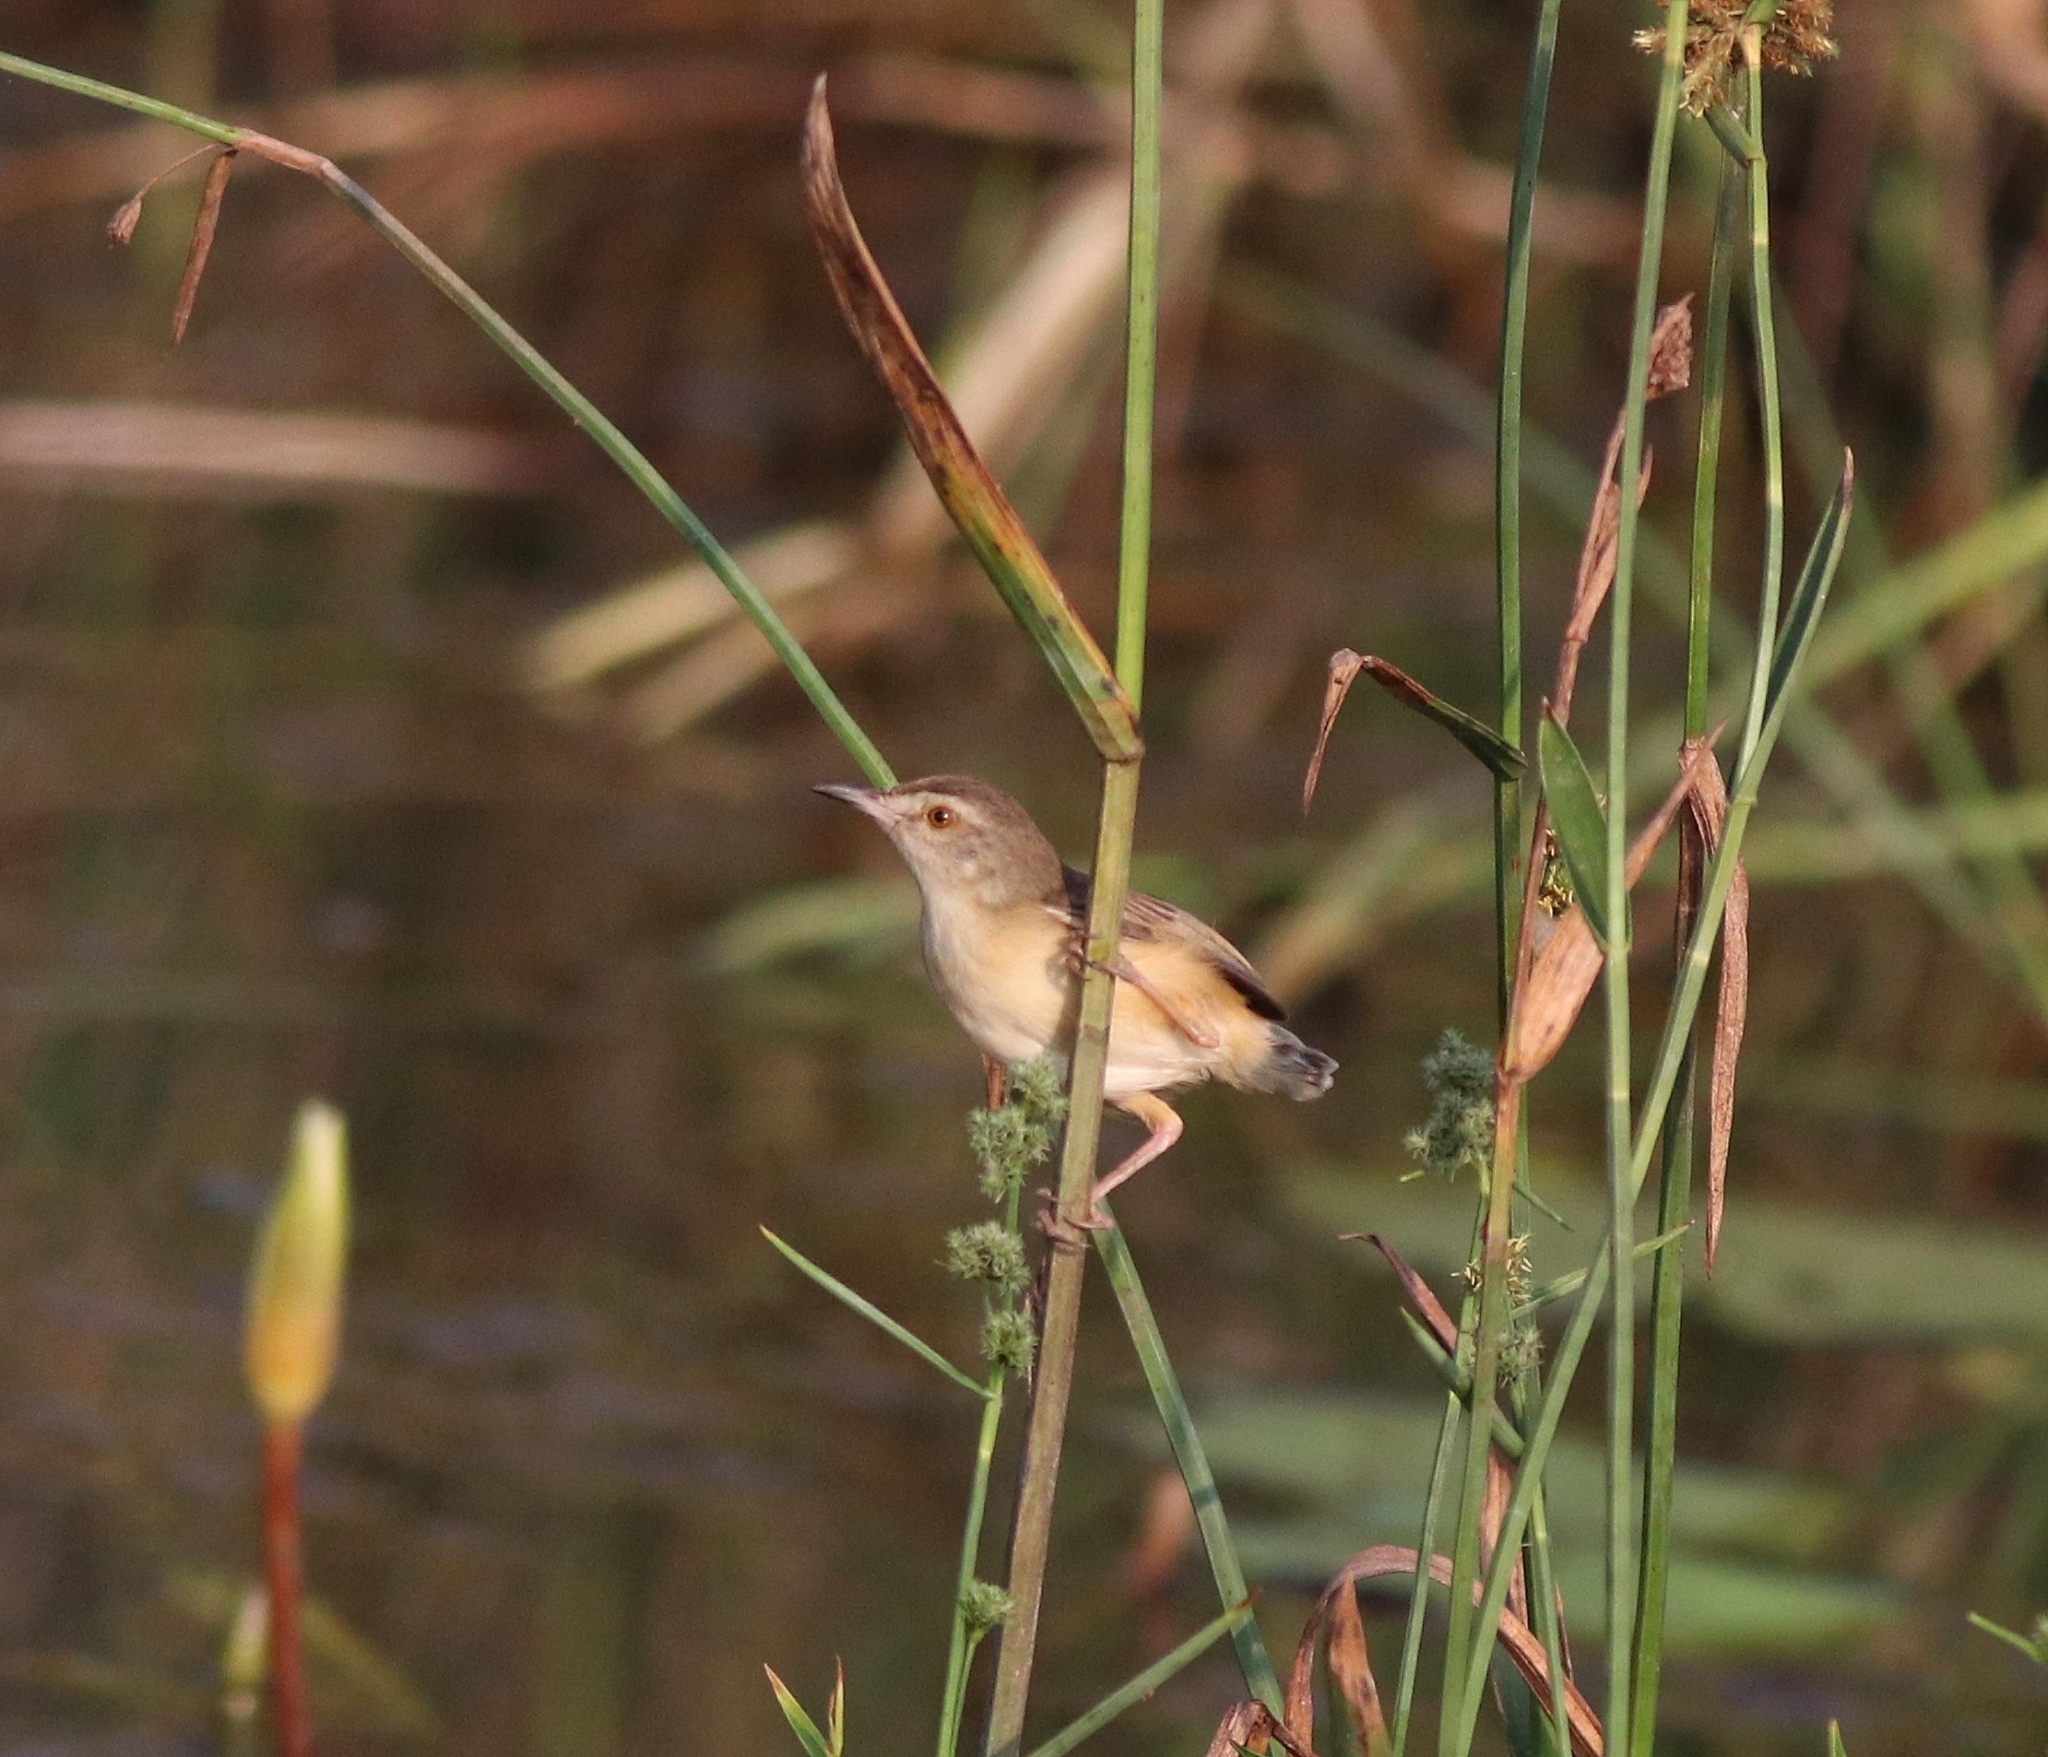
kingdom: Animalia
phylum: Chordata
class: Aves
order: Passeriformes
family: Cisticolidae
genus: Prinia
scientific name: Prinia inornata
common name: Plain prinia
